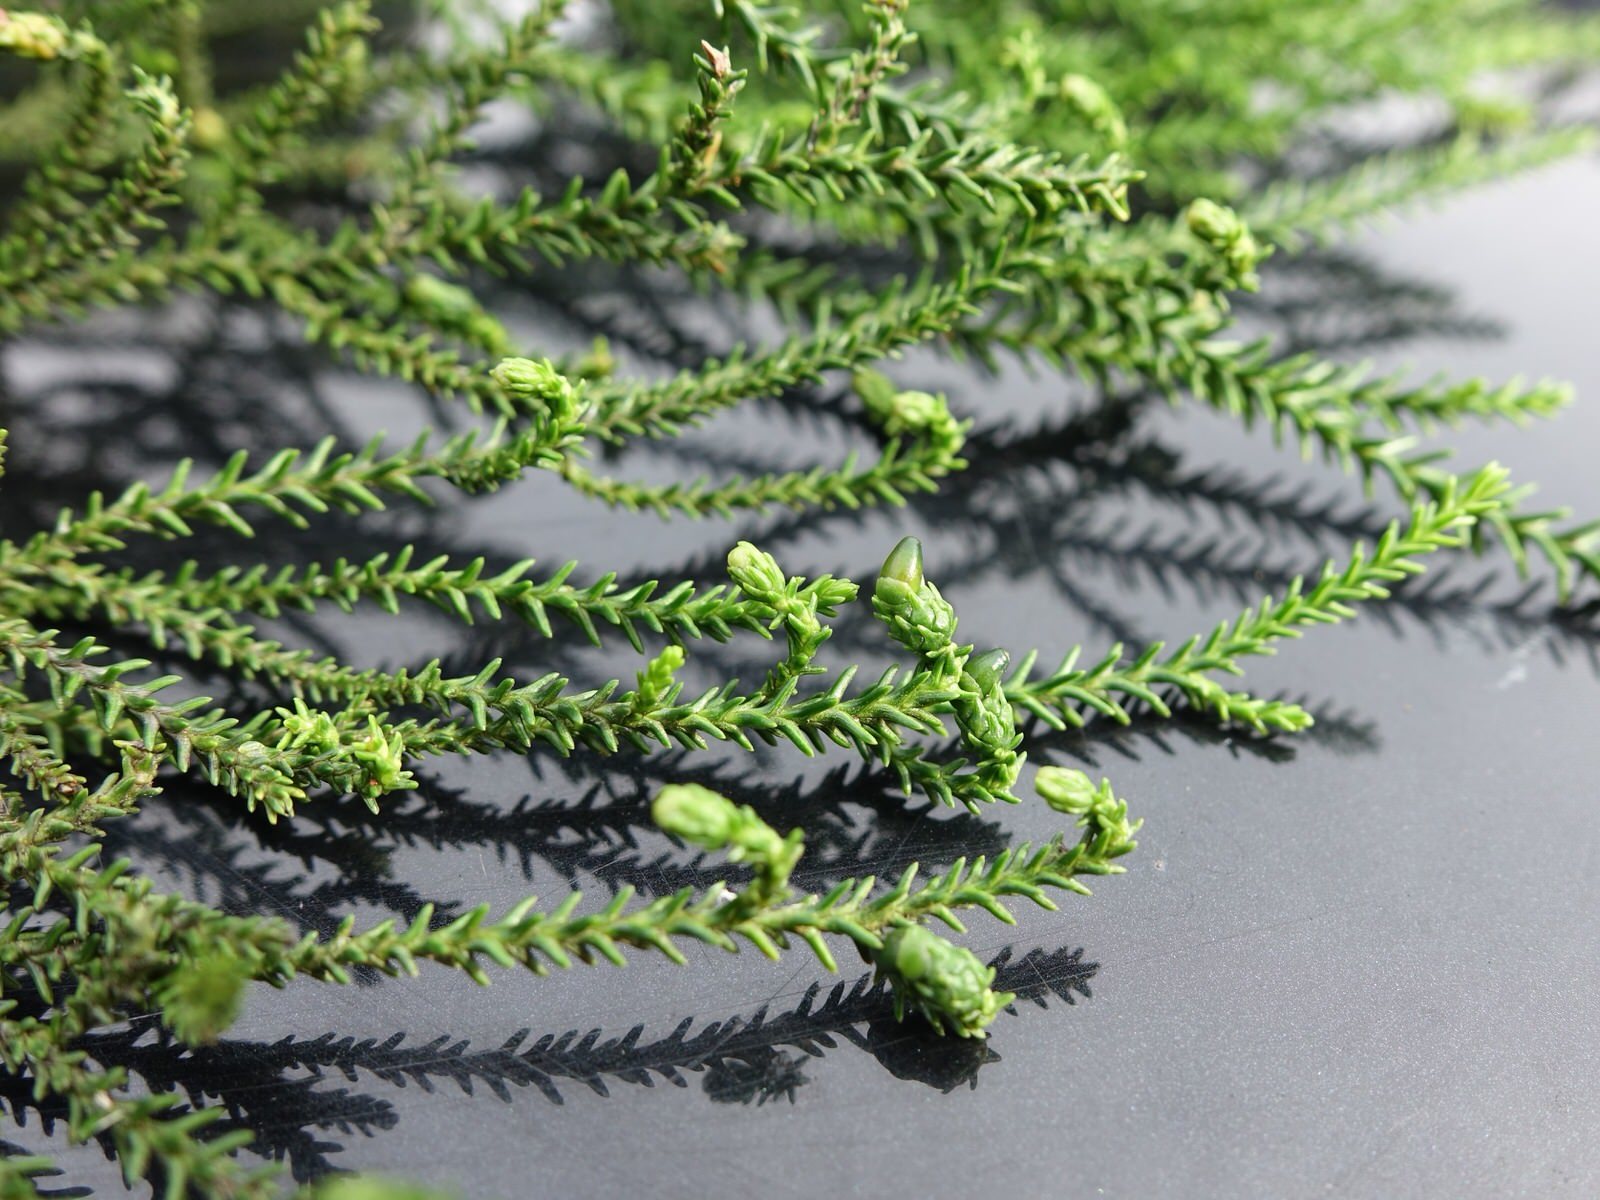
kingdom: Plantae
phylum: Tracheophyta
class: Pinopsida
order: Pinales
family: Podocarpaceae
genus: Dacrydium
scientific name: Dacrydium cupressinum
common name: Red pine
